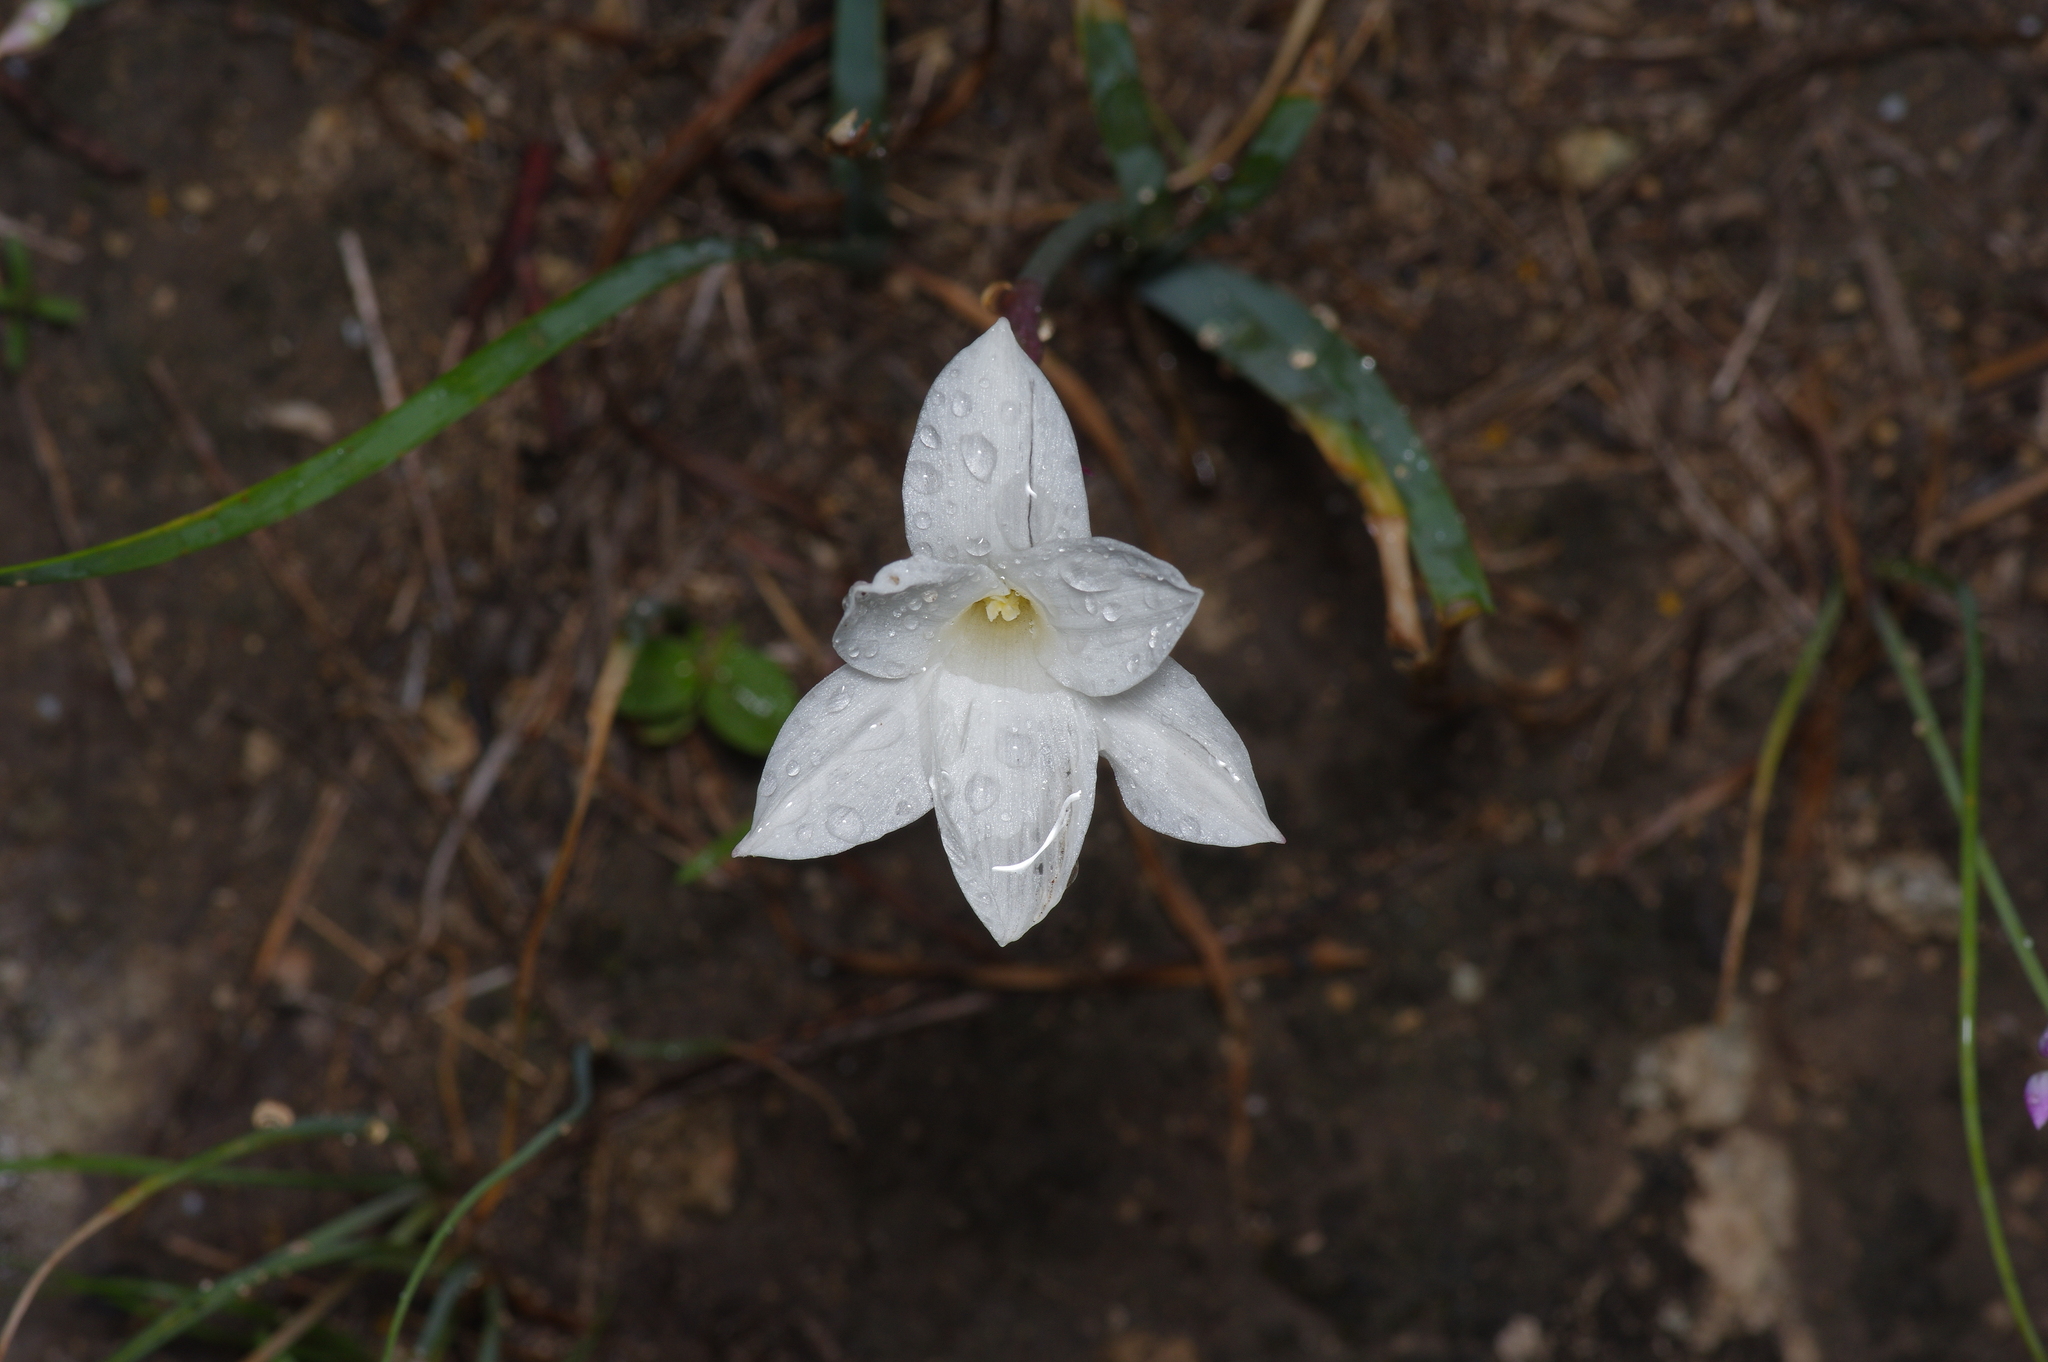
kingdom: Plantae
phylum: Tracheophyta
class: Liliopsida
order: Asparagales
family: Amaryllidaceae
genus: Zephyranthes
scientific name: Zephyranthes drummondii
